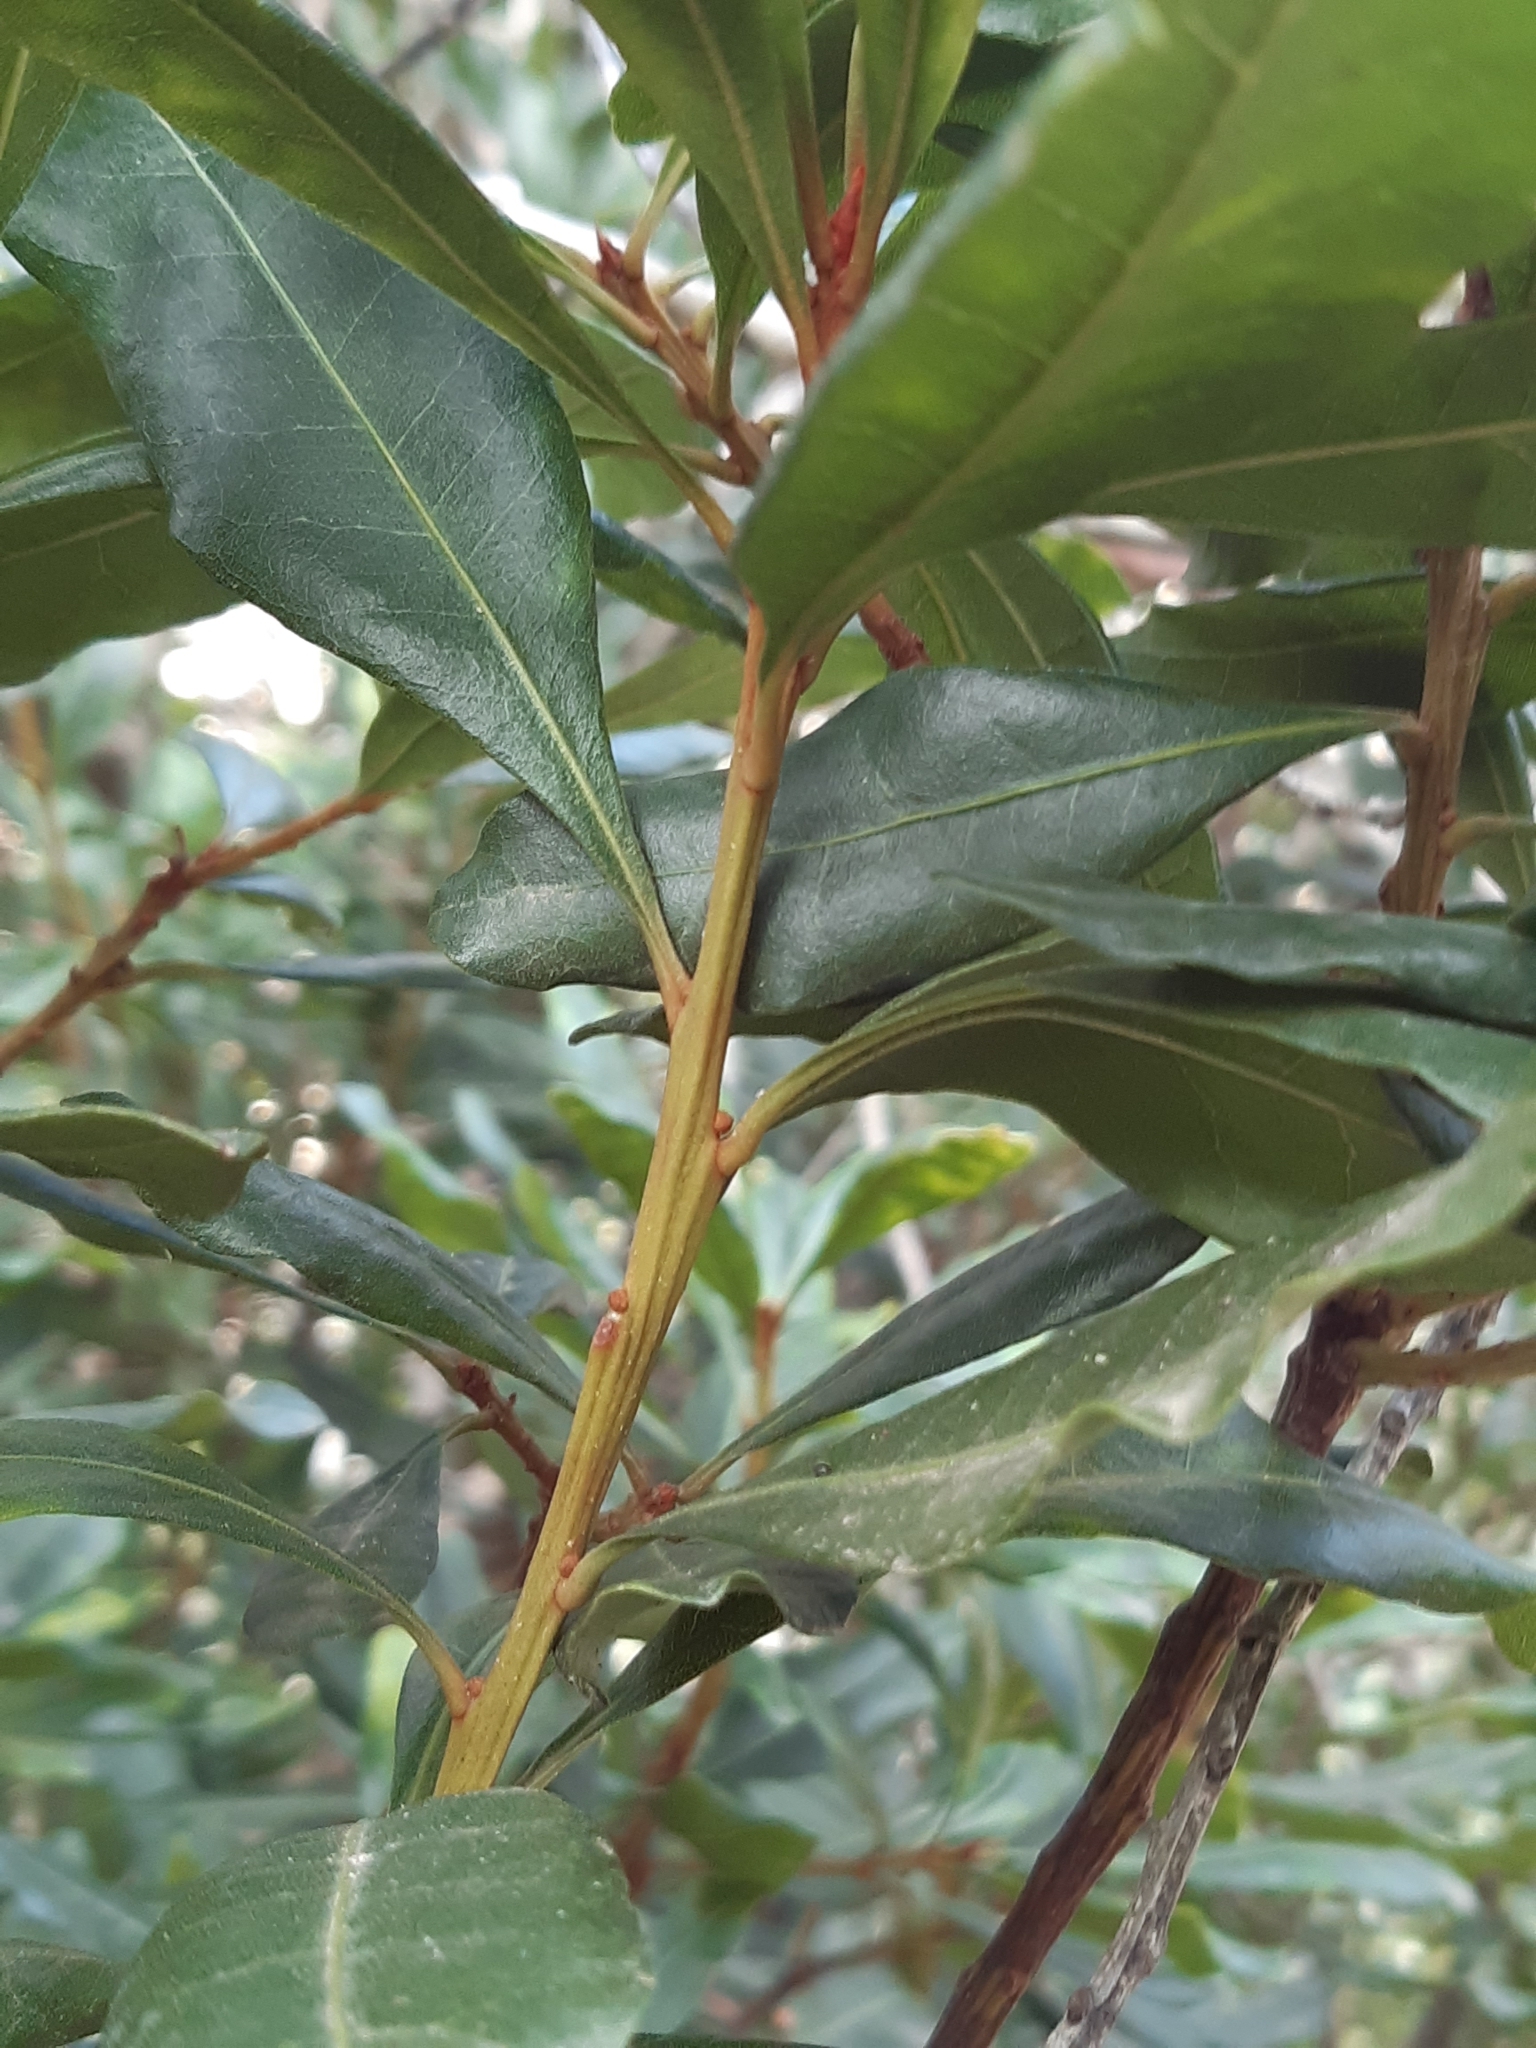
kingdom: Plantae
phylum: Tracheophyta
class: Magnoliopsida
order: Fagales
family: Myricaceae
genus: Morella
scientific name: Morella faya
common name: Firetree
